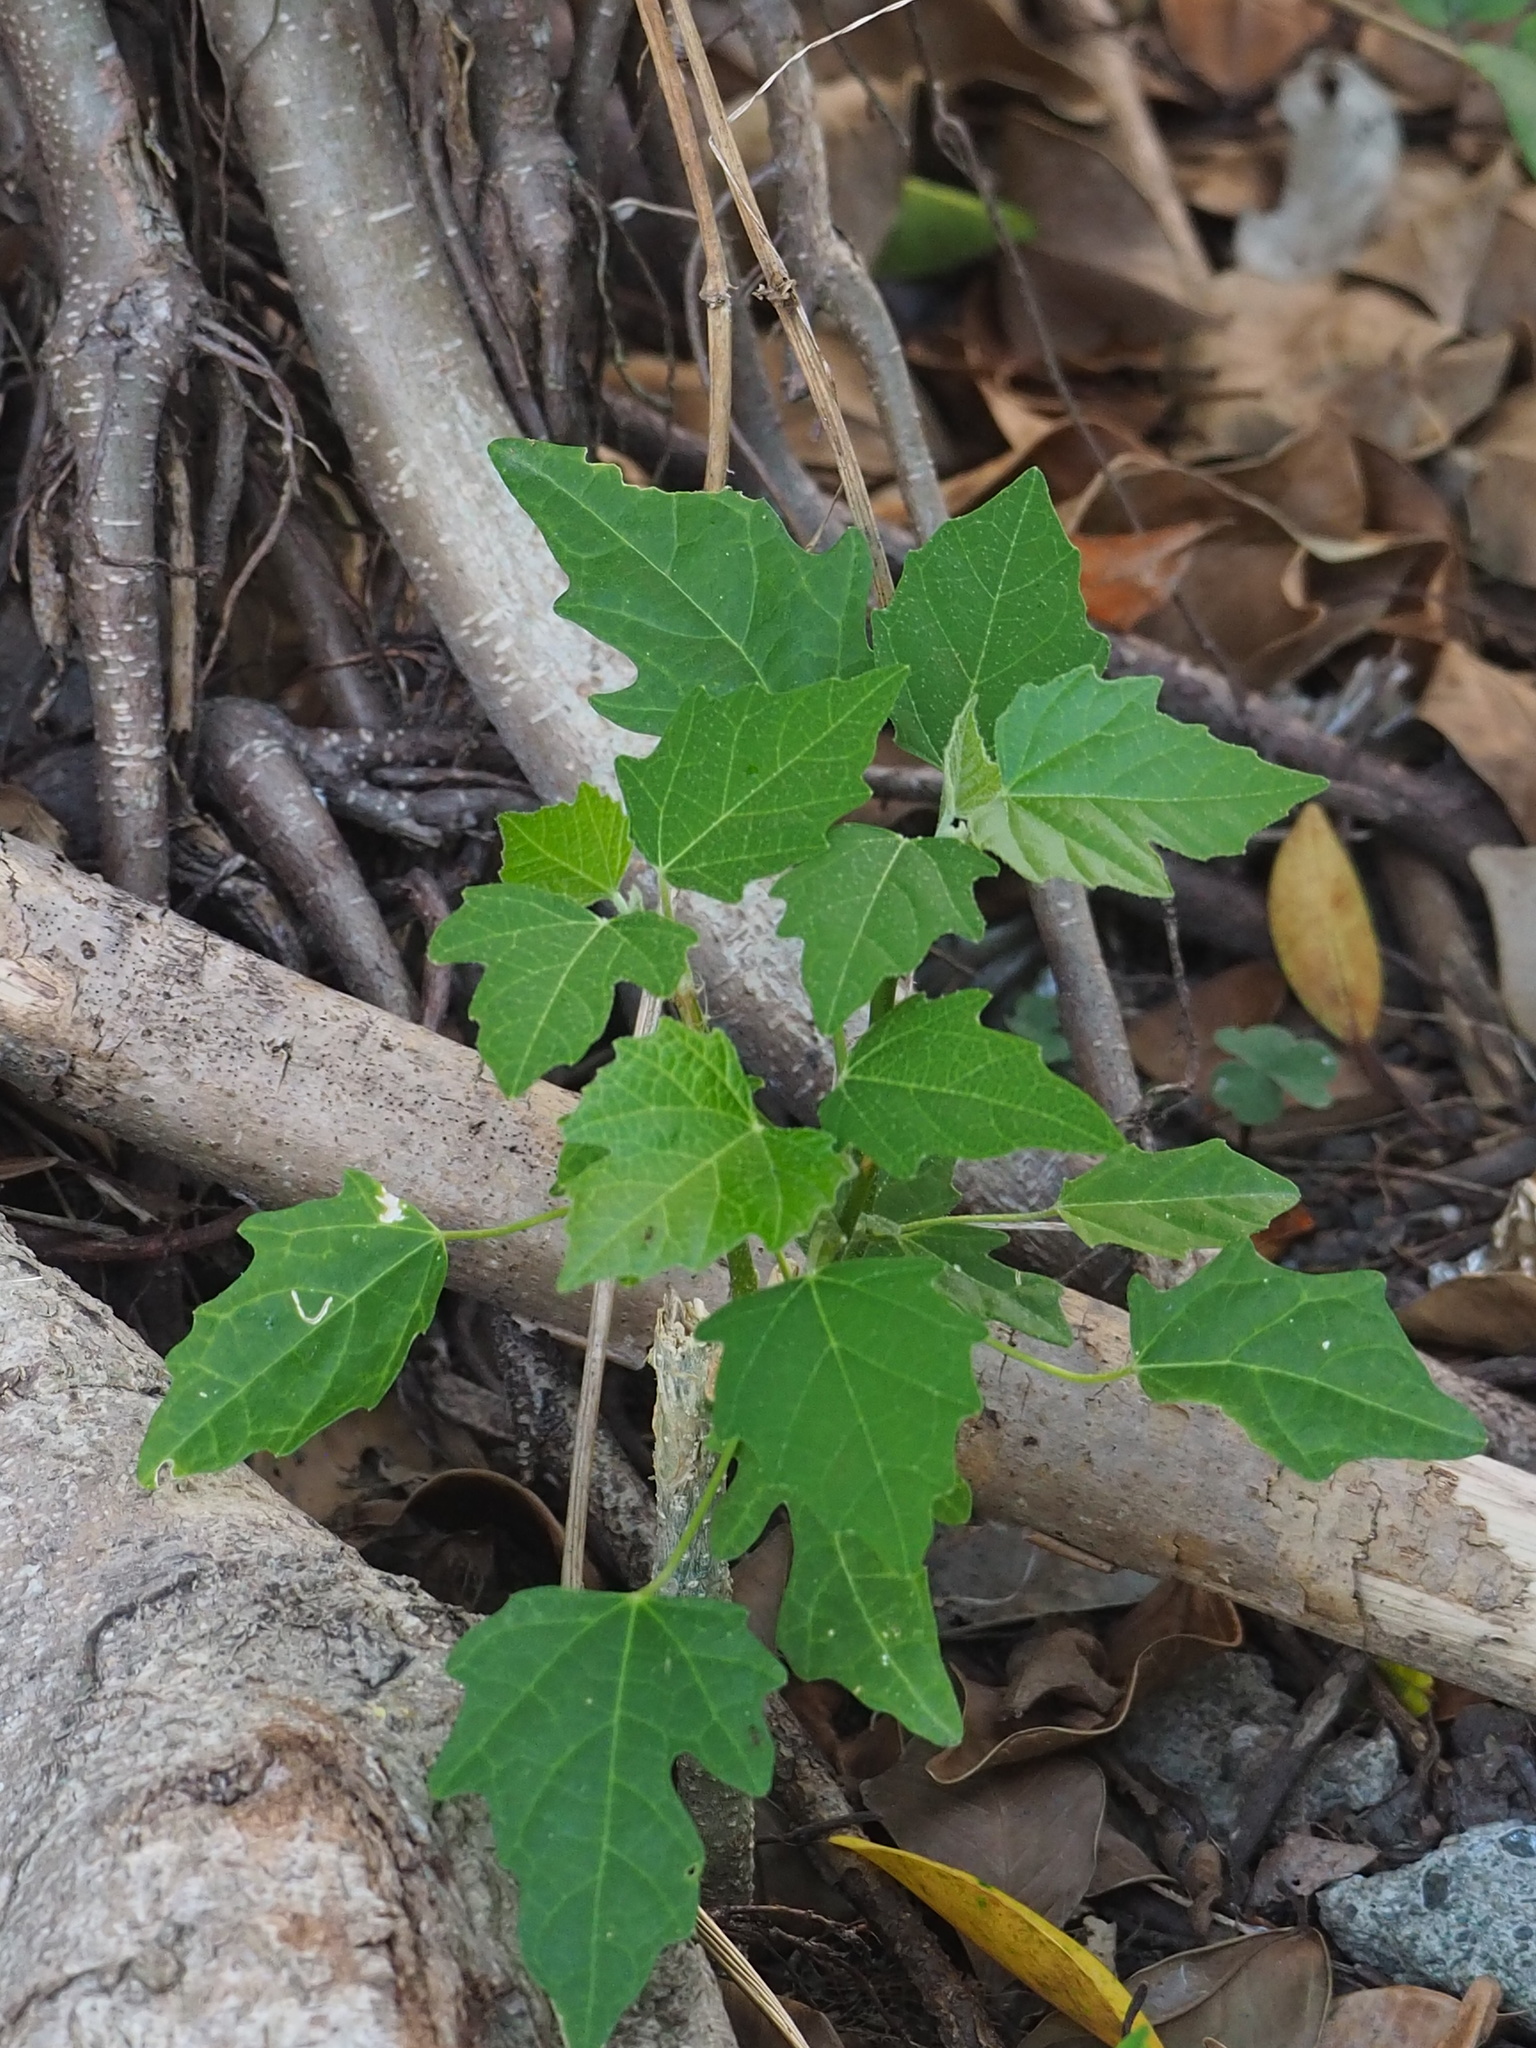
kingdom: Plantae
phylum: Tracheophyta
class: Magnoliopsida
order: Malpighiales
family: Euphorbiaceae
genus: Melanolepis
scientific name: Melanolepis multiglandulosa
